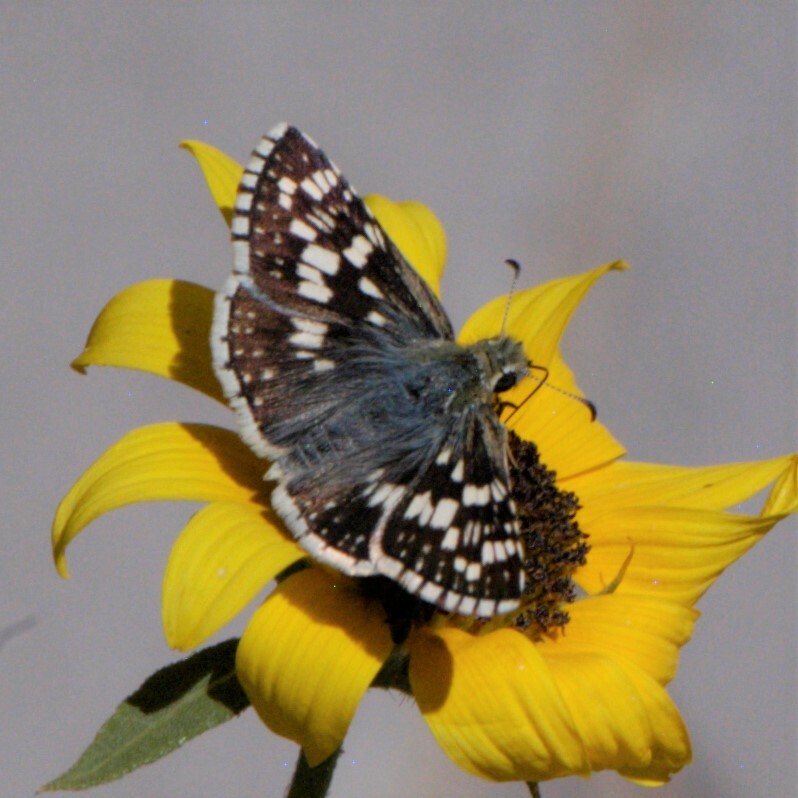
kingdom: Animalia
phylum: Arthropoda
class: Insecta
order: Lepidoptera
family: Hesperiidae
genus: Burnsius
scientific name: Burnsius
